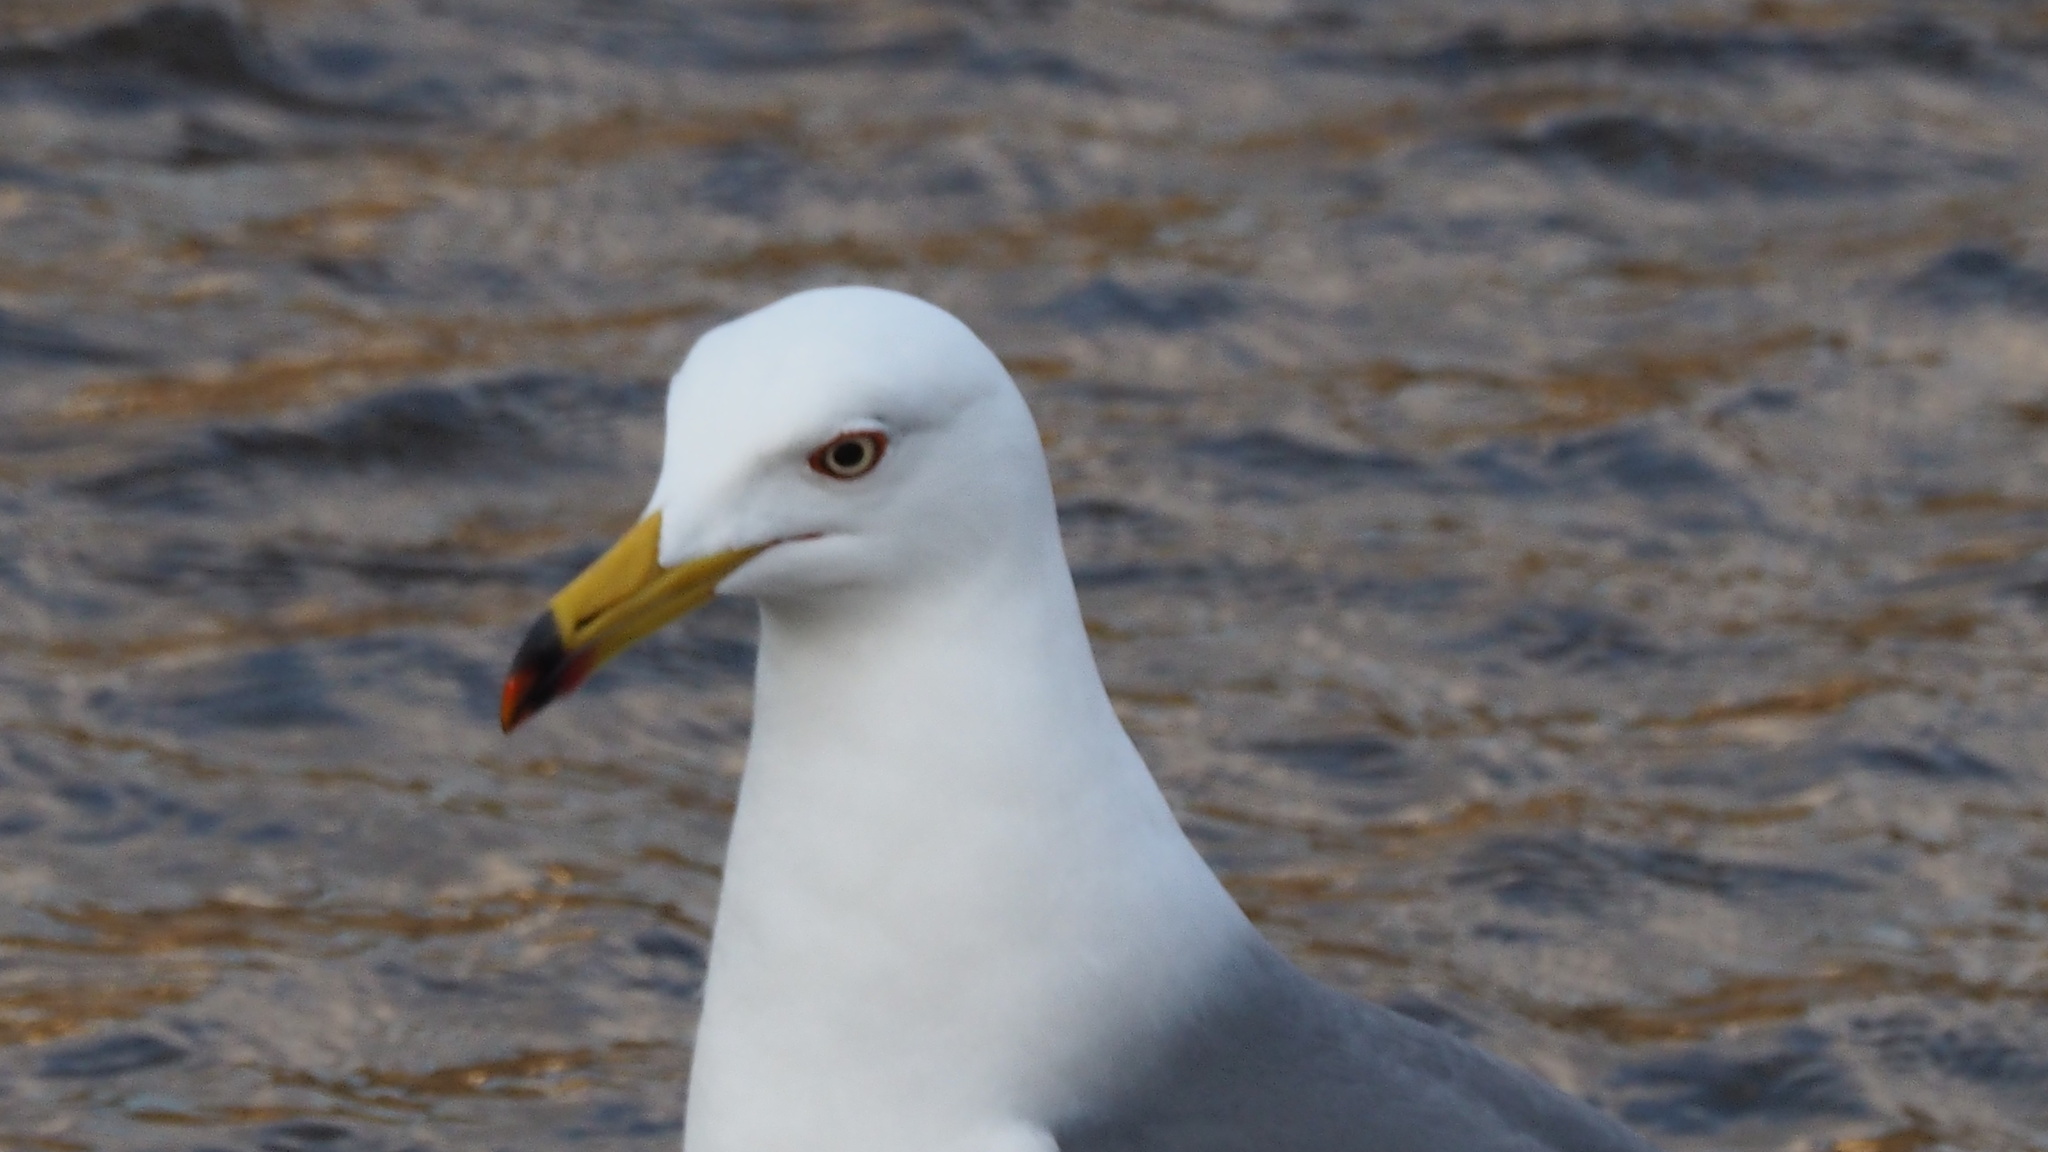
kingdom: Animalia
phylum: Chordata
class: Aves
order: Charadriiformes
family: Laridae
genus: Larus
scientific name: Larus crassirostris
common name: Black-tailed gull
